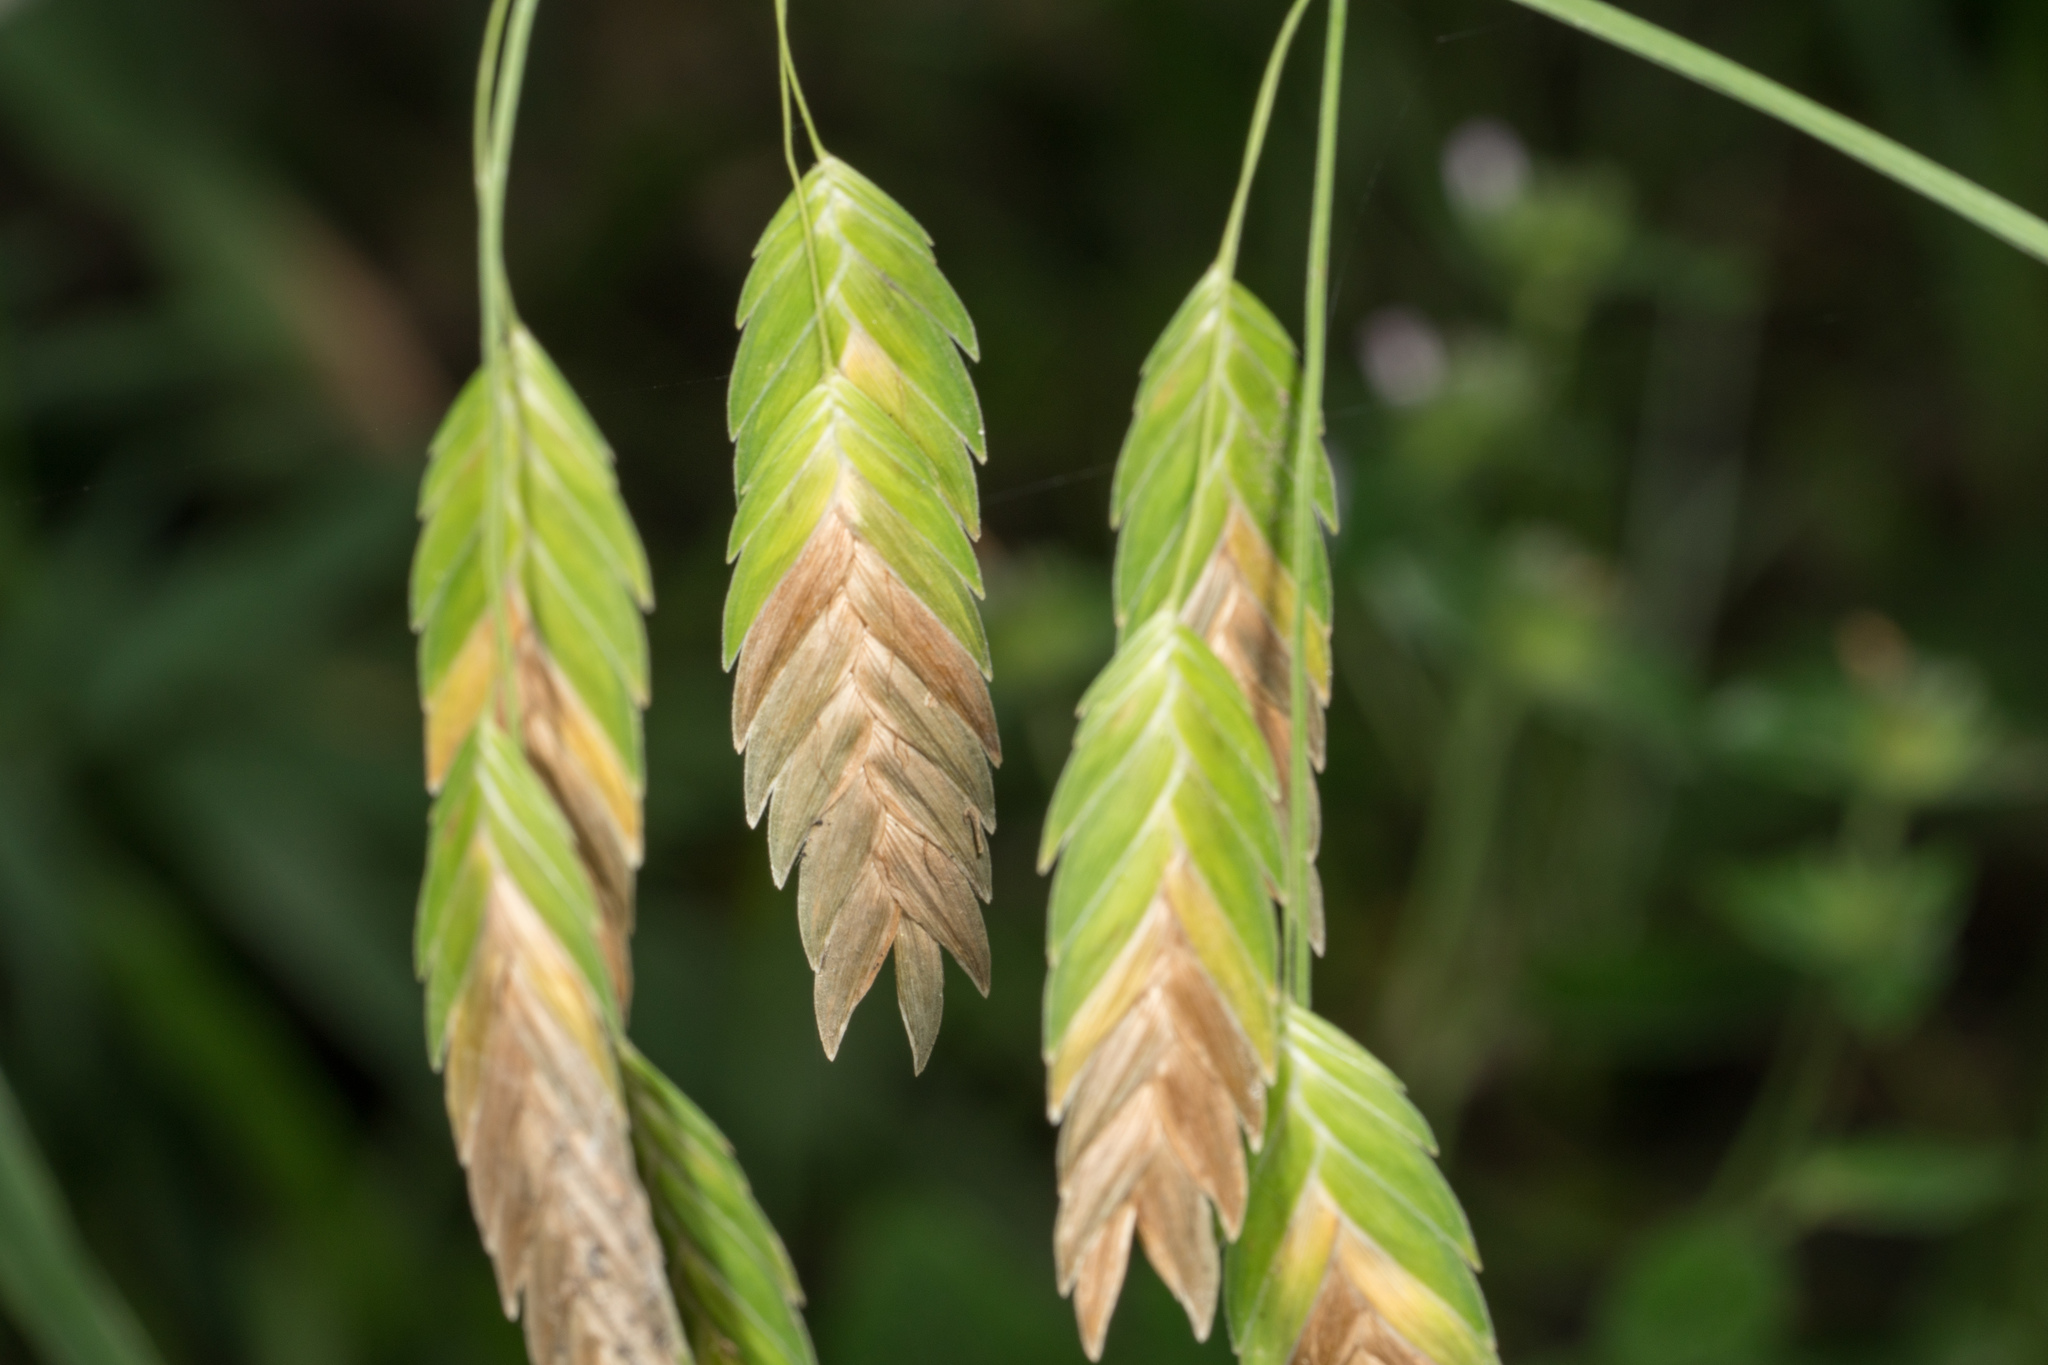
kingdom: Plantae
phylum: Tracheophyta
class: Liliopsida
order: Poales
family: Poaceae
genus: Chasmanthium
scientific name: Chasmanthium latifolium
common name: Broad-leaved chasmanthium
